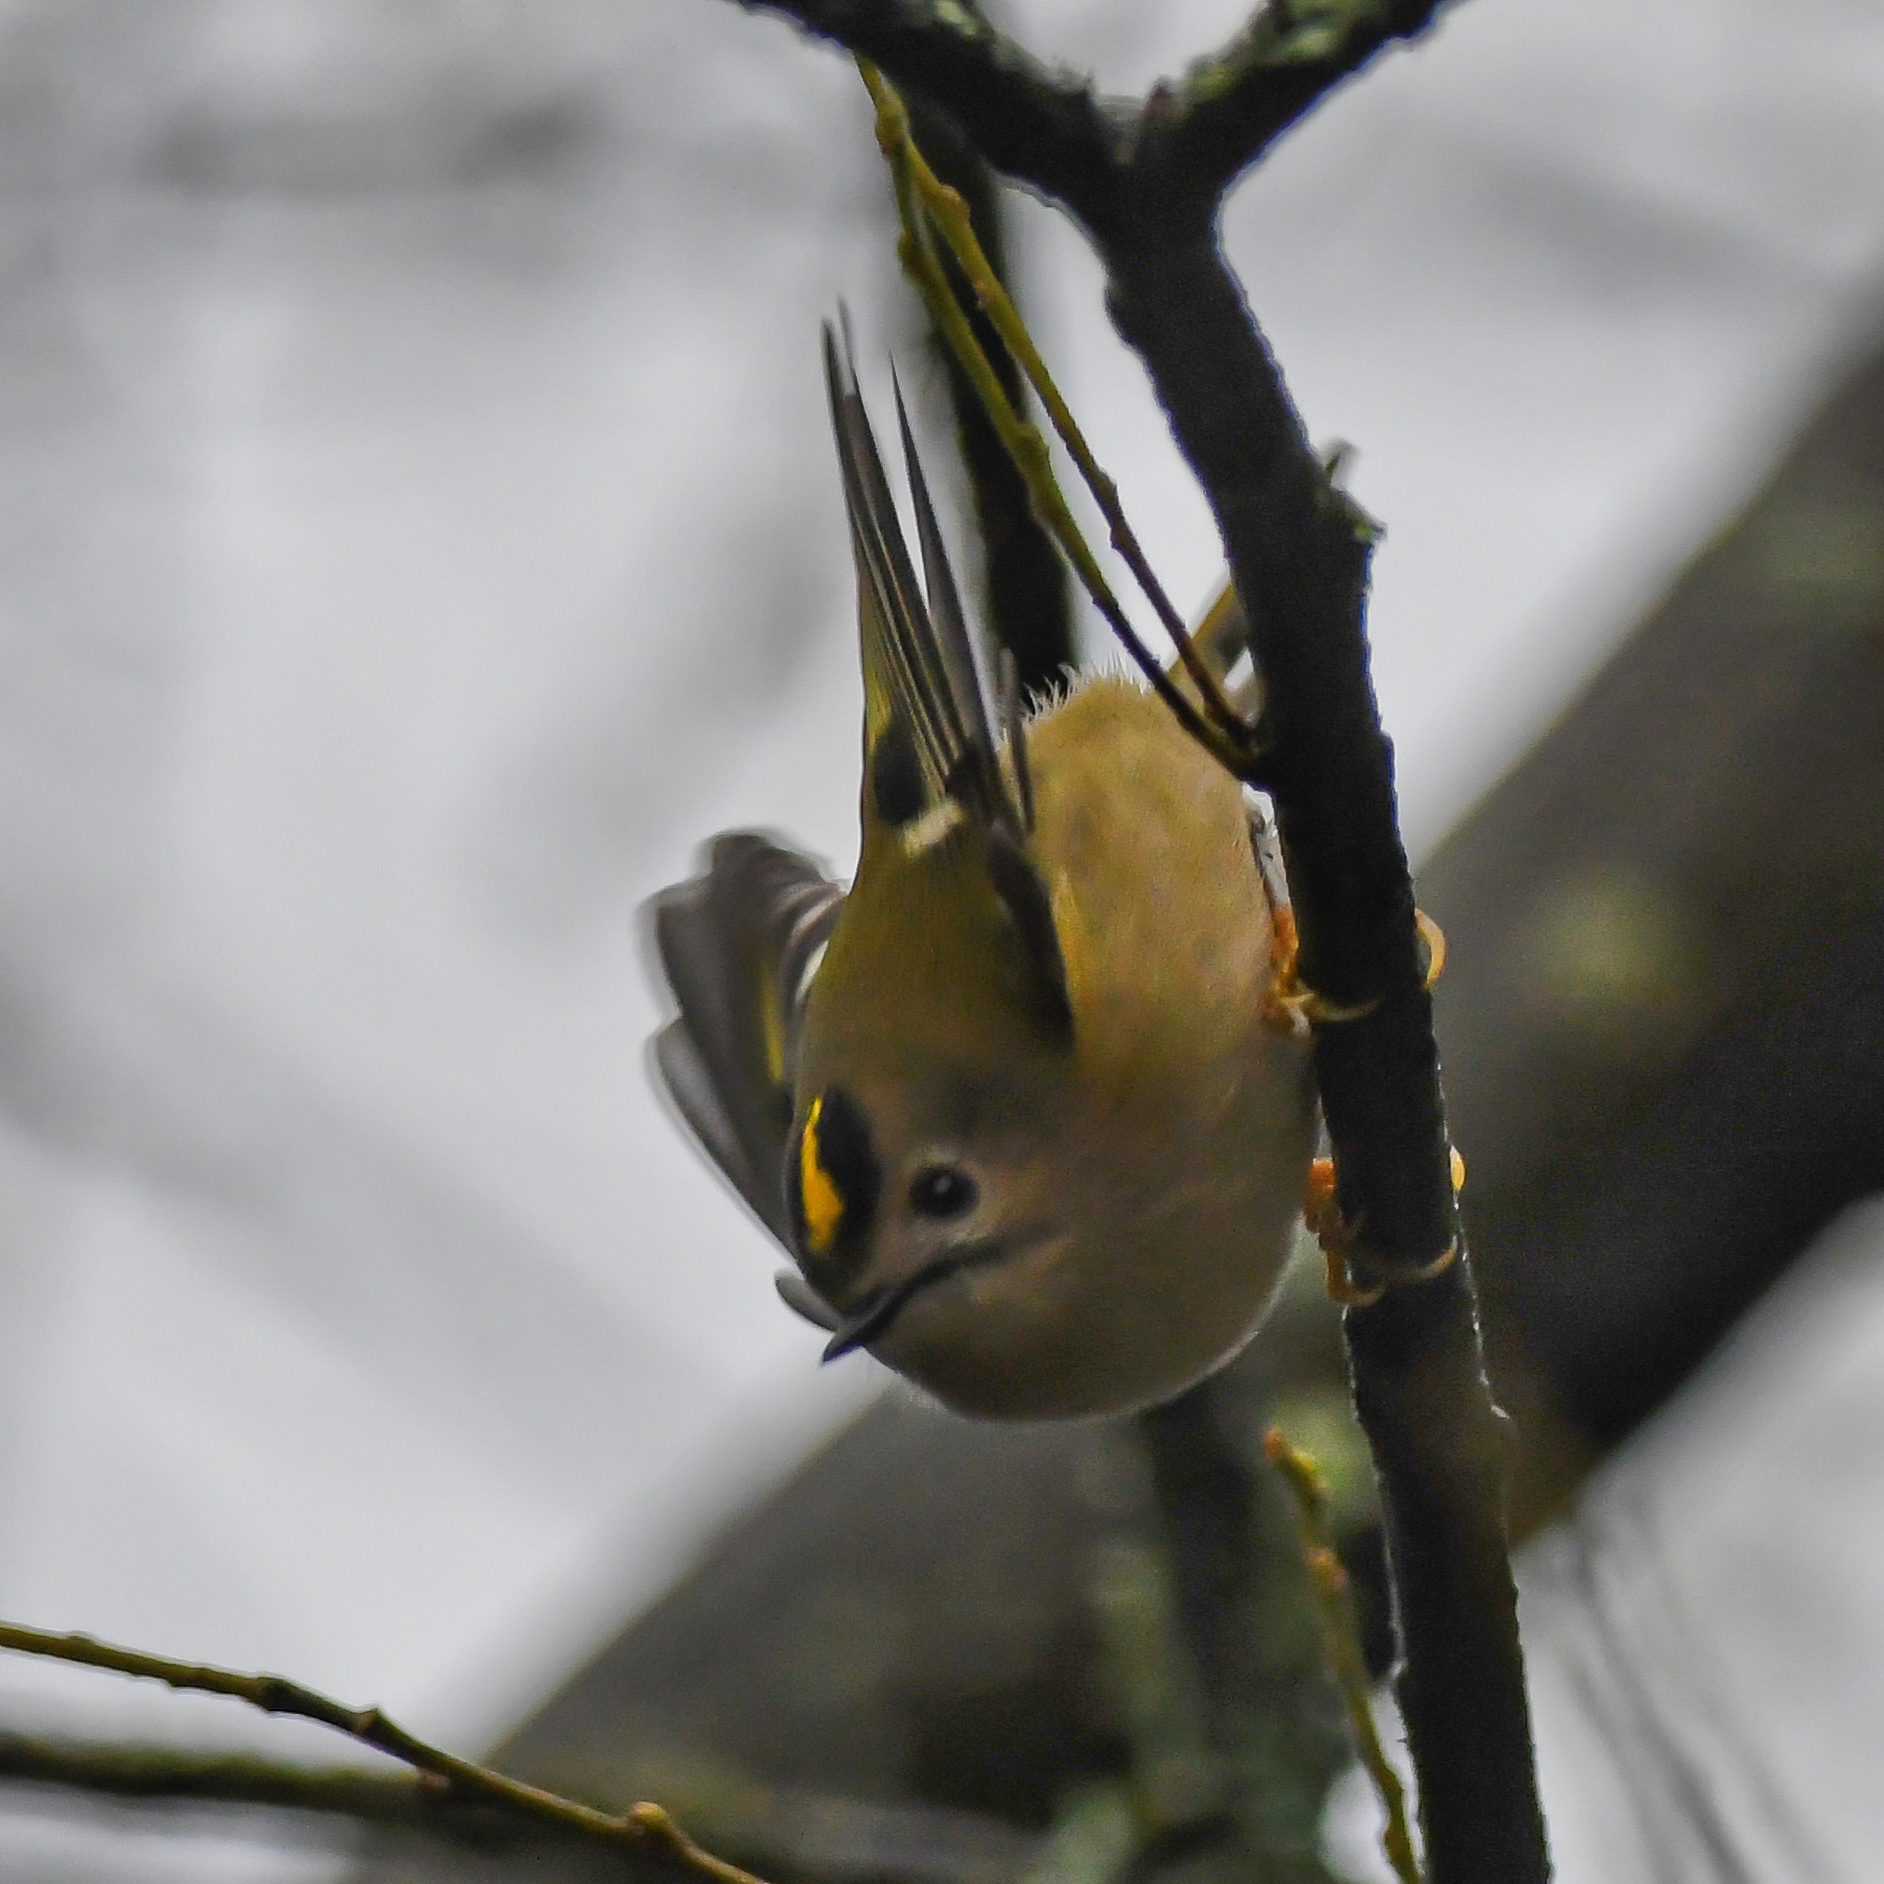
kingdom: Animalia
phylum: Chordata
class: Aves
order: Passeriformes
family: Regulidae
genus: Regulus
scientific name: Regulus regulus
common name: Goldcrest
